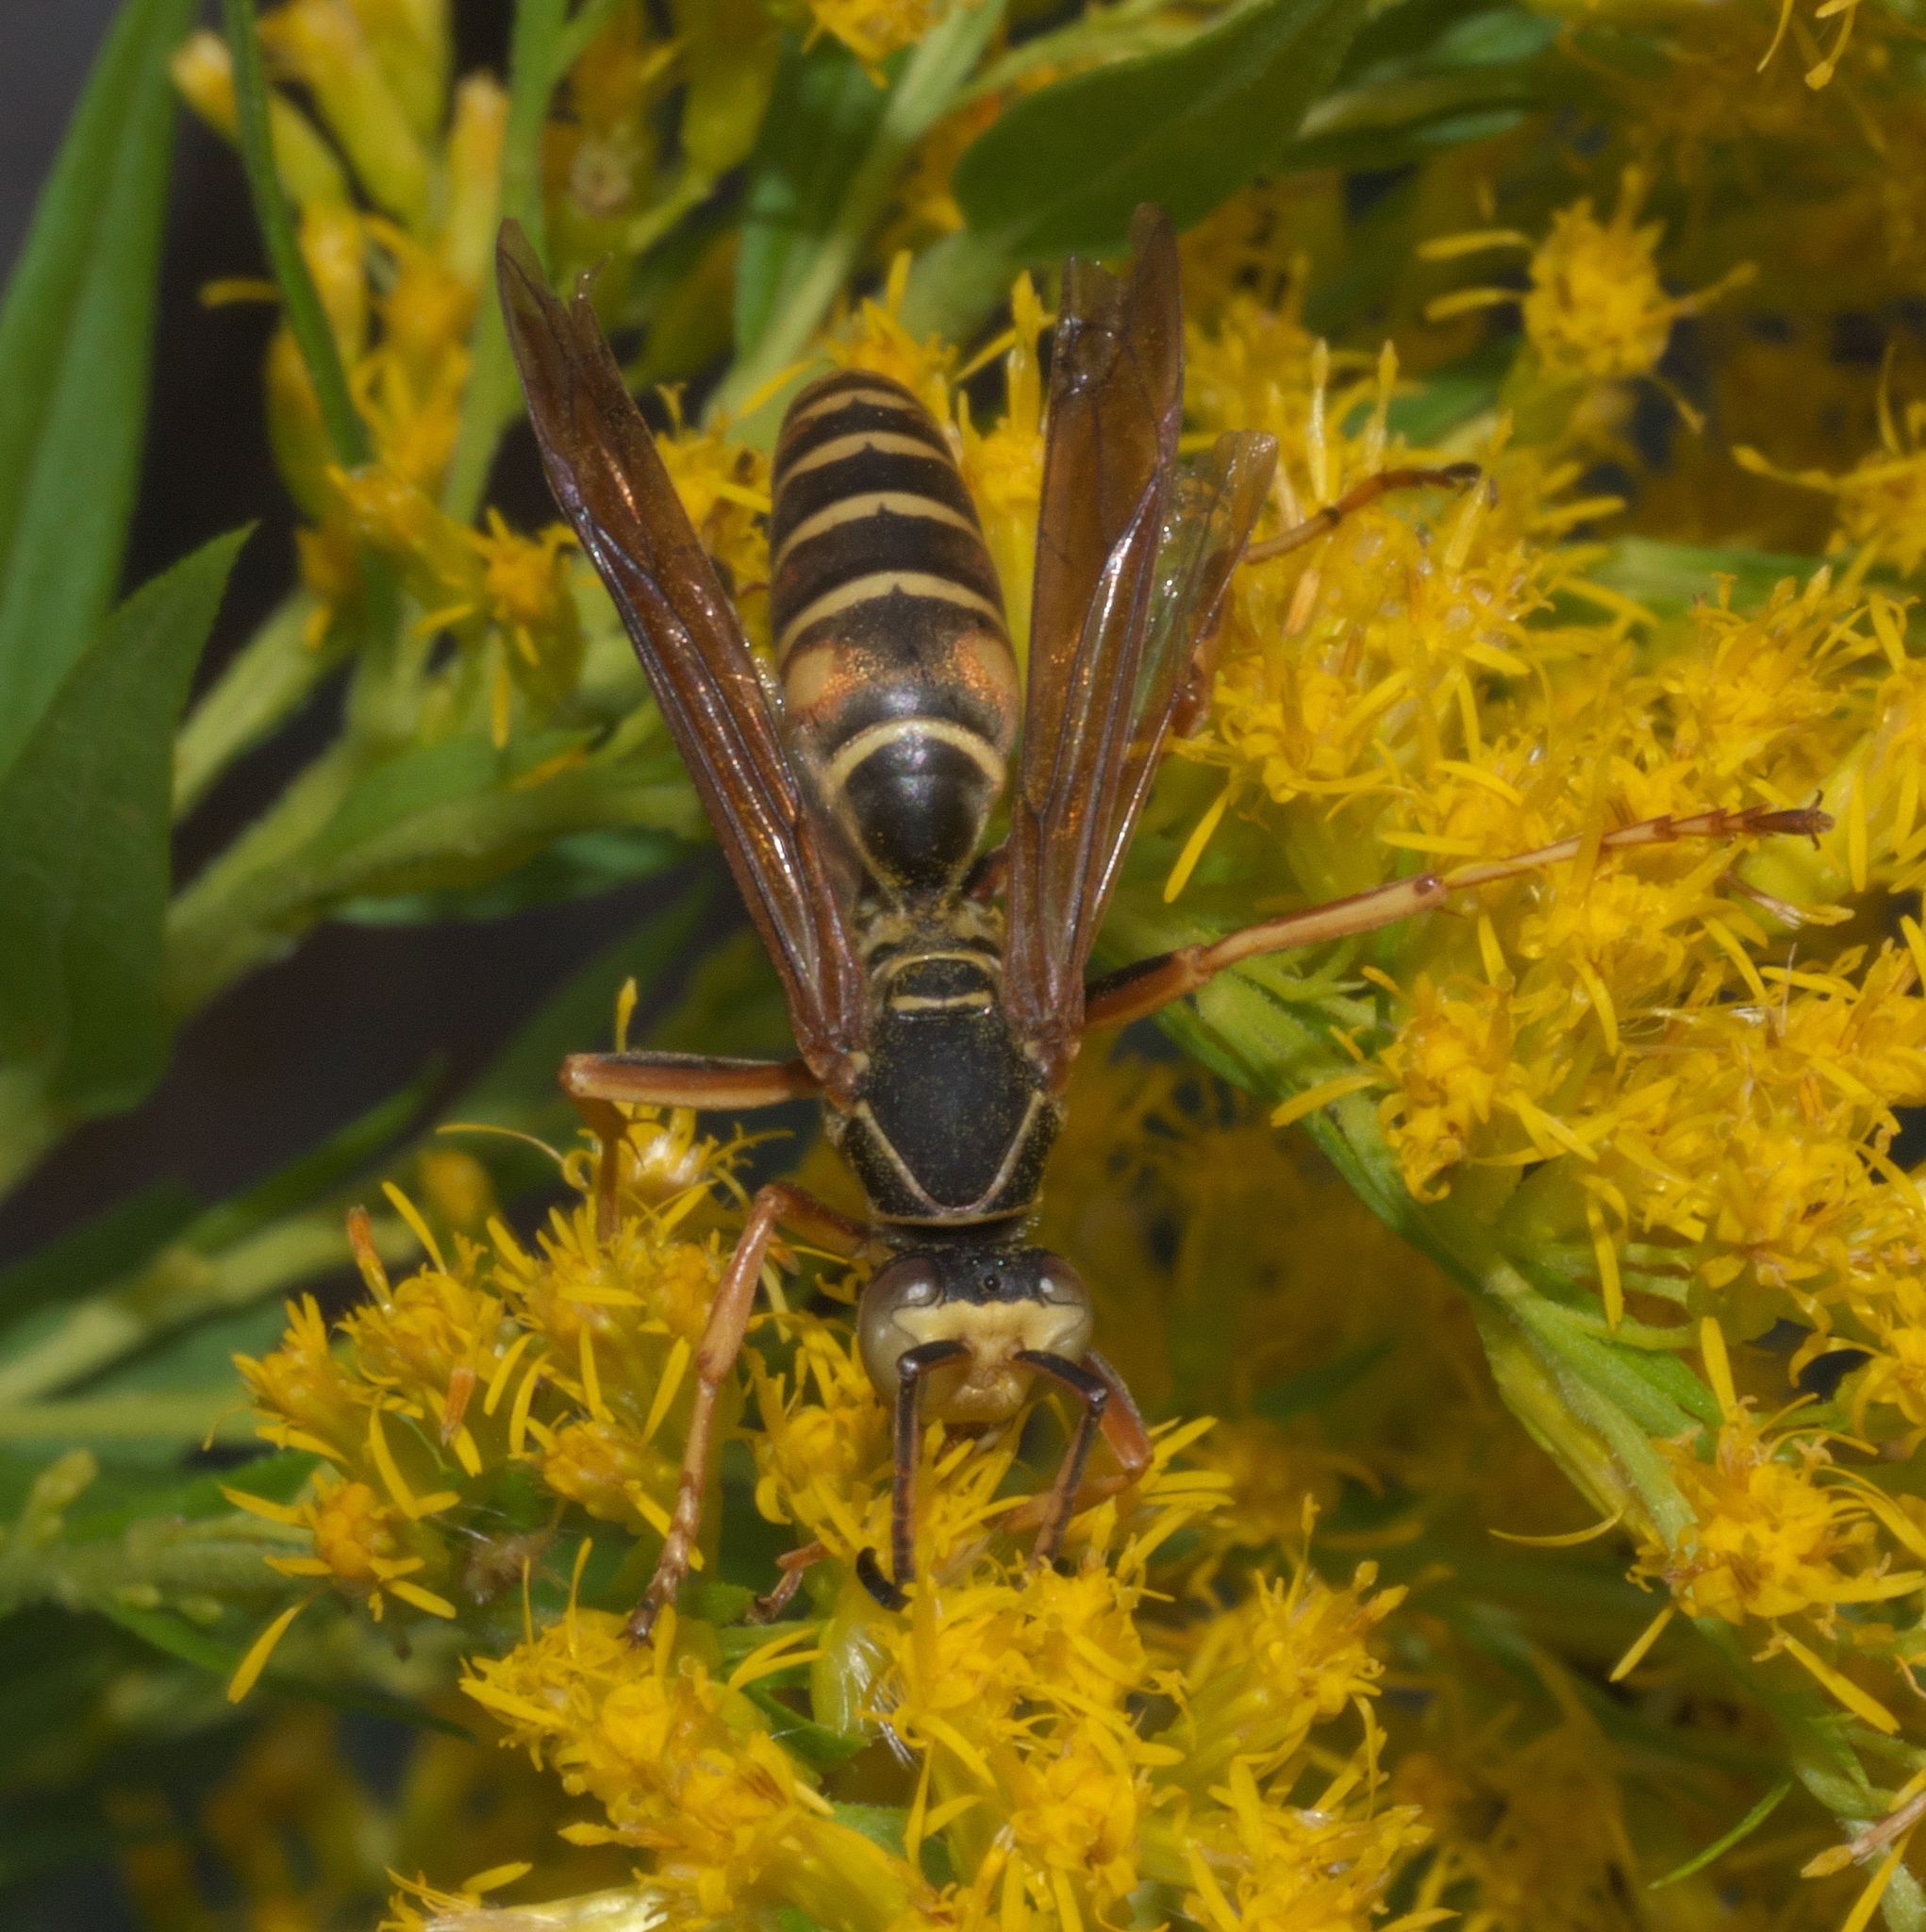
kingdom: Animalia
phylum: Arthropoda
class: Insecta
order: Hymenoptera
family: Eumenidae
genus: Polistes
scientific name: Polistes fuscatus
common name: Dark paper wasp
